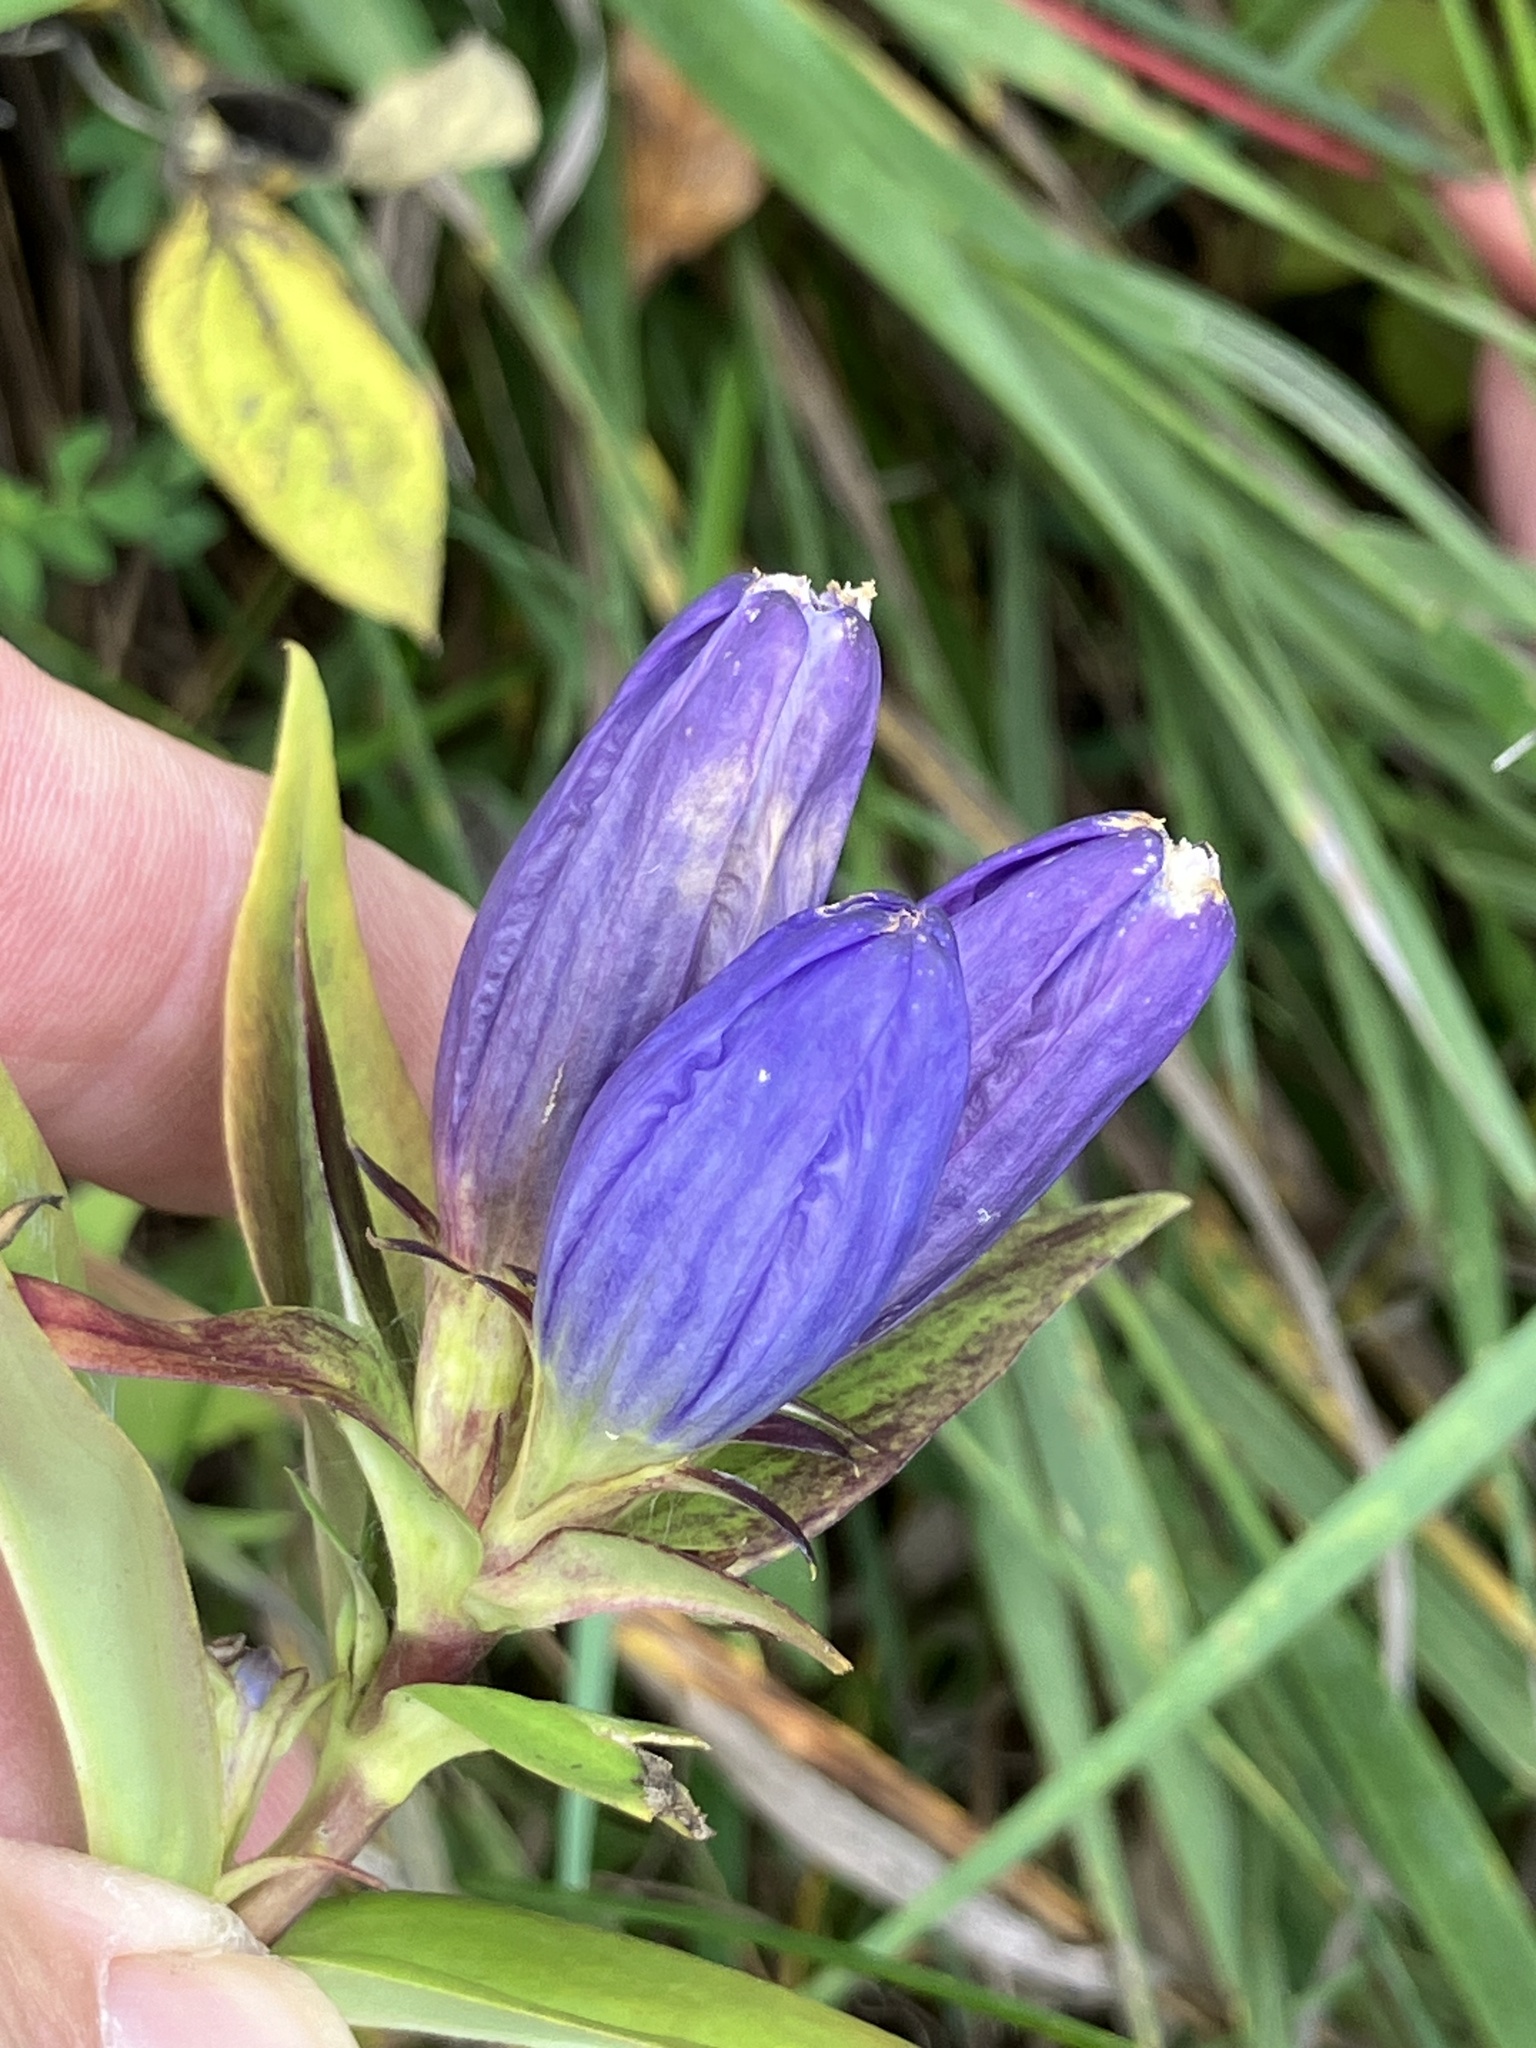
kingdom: Plantae
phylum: Tracheophyta
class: Magnoliopsida
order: Gentianales
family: Gentianaceae
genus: Gentiana
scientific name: Gentiana andrewsii
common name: Bottle gentian
